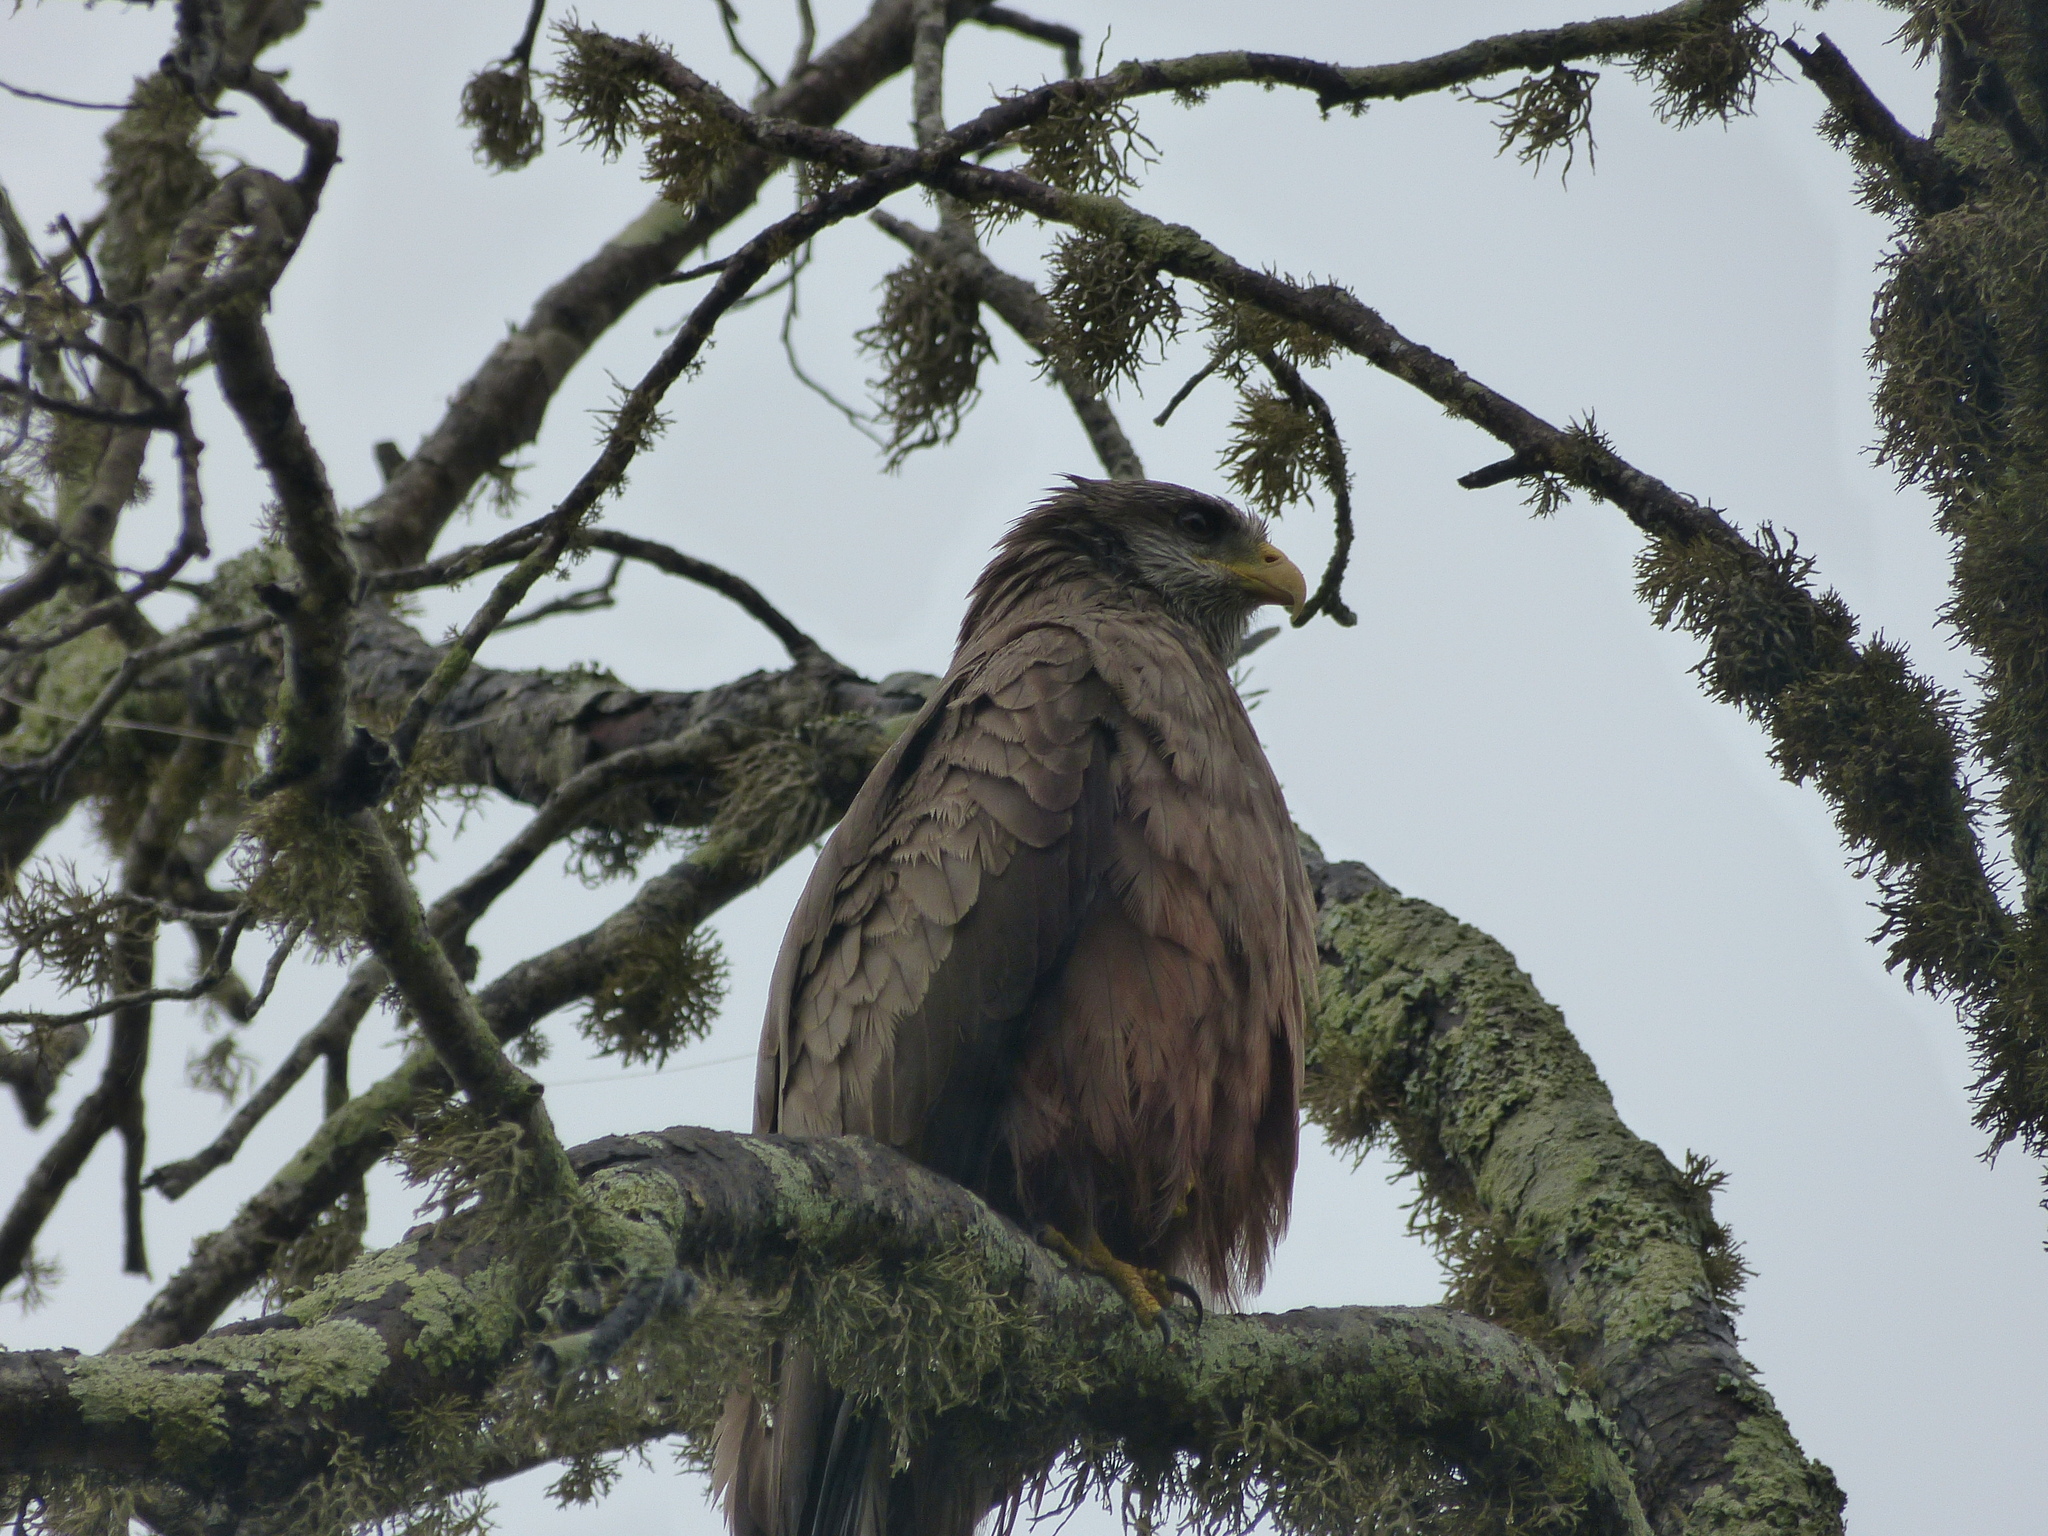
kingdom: Animalia
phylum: Chordata
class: Aves
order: Accipitriformes
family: Accipitridae
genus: Milvus
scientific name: Milvus migrans
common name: Black kite
